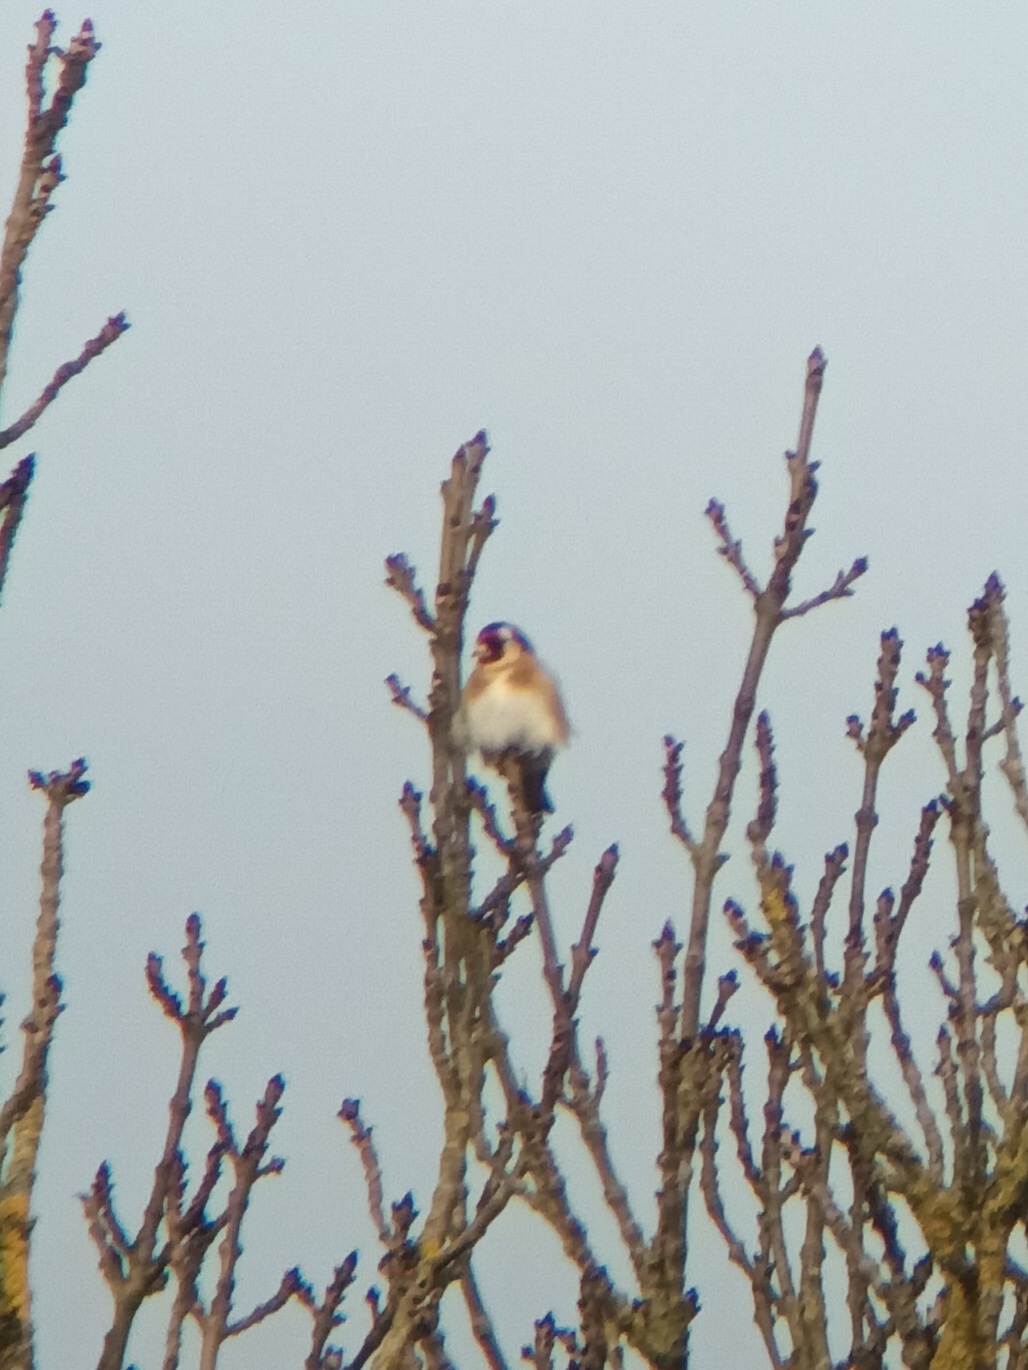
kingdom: Animalia
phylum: Chordata
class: Aves
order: Passeriformes
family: Fringillidae
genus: Carduelis
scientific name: Carduelis carduelis
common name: European goldfinch
